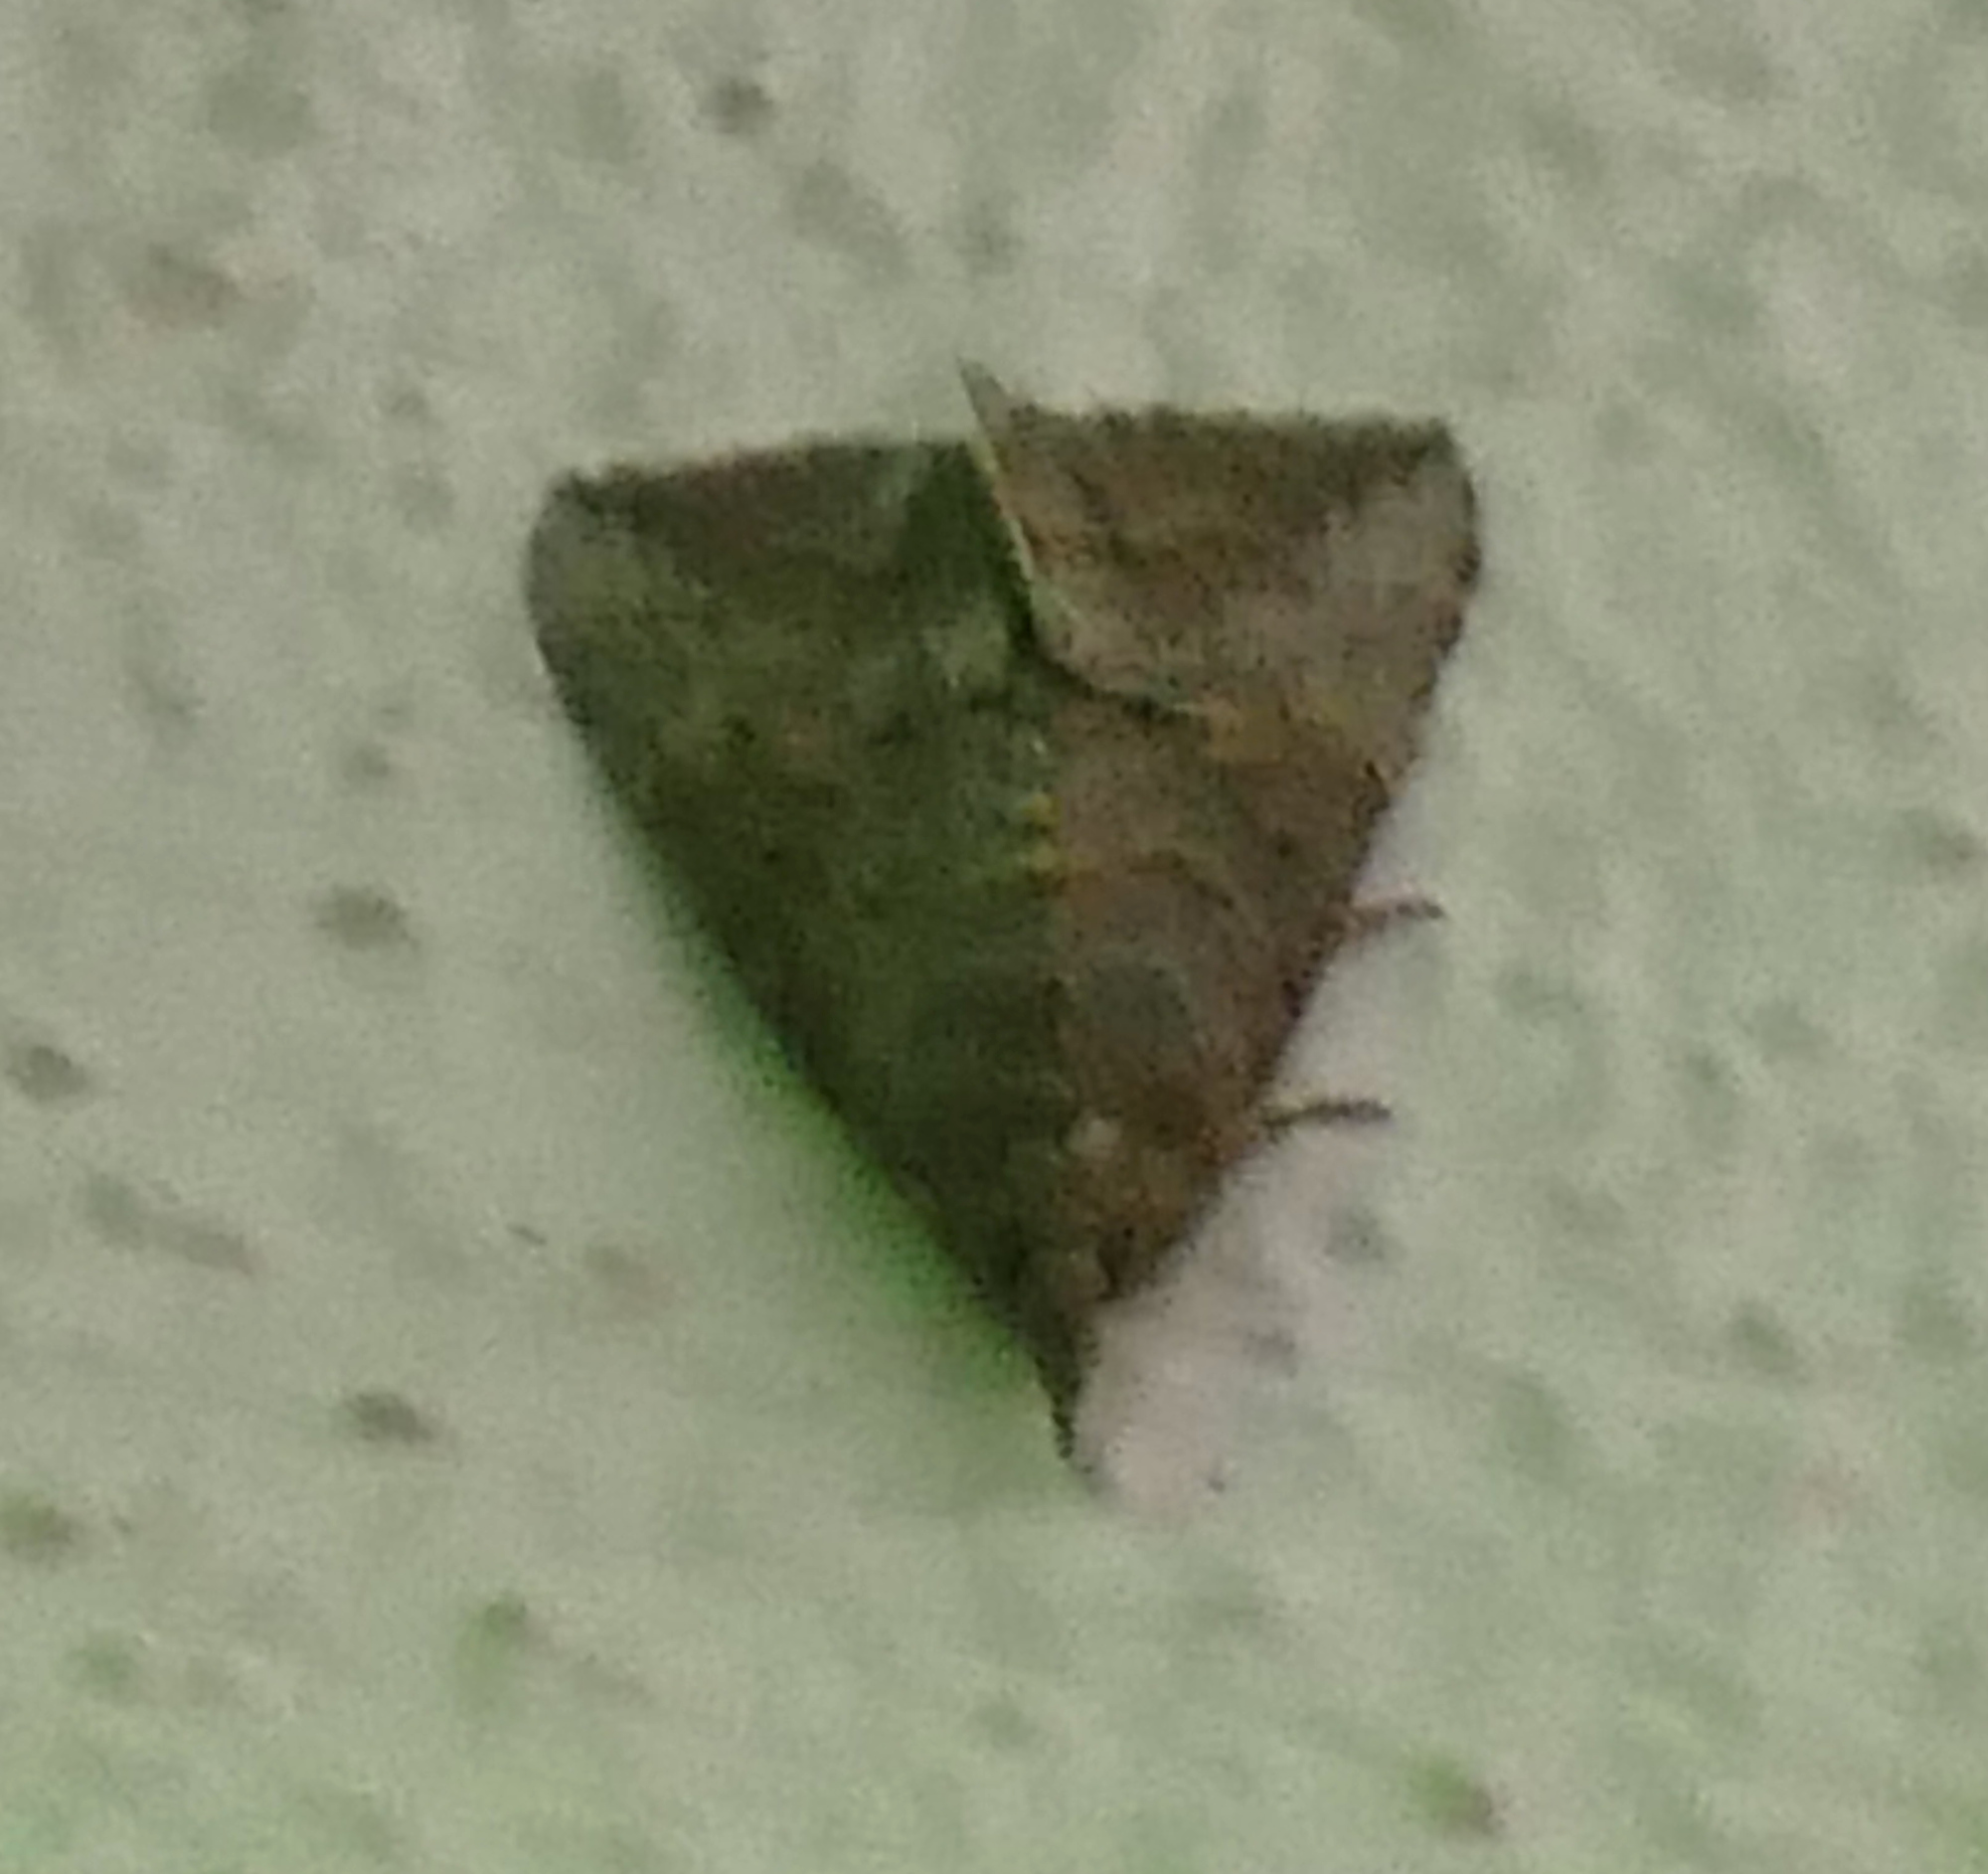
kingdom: Animalia
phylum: Arthropoda
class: Insecta
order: Lepidoptera
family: Erebidae
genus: Hypena
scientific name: Hypena scabra
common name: Green cloverworm
